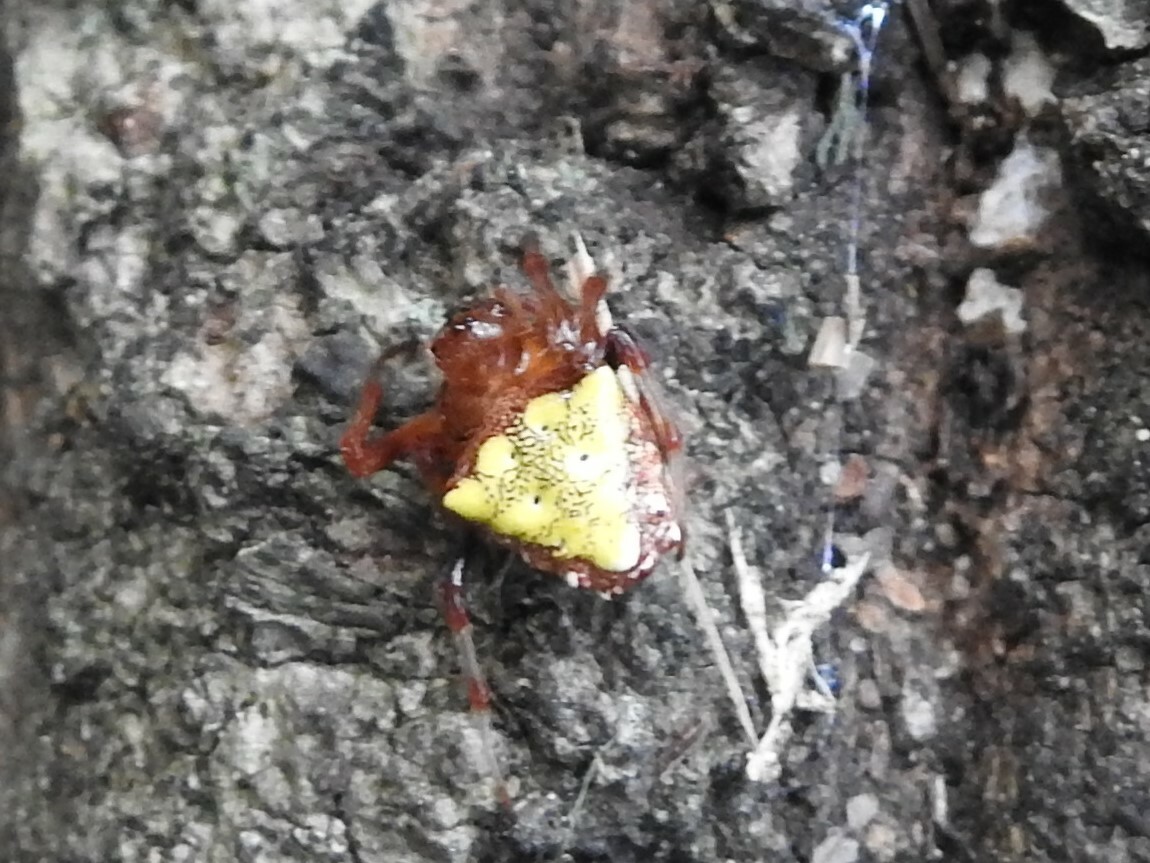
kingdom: Animalia
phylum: Arthropoda
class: Arachnida
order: Araneae
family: Araneidae
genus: Verrucosa
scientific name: Verrucosa arenata
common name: Orb weavers
